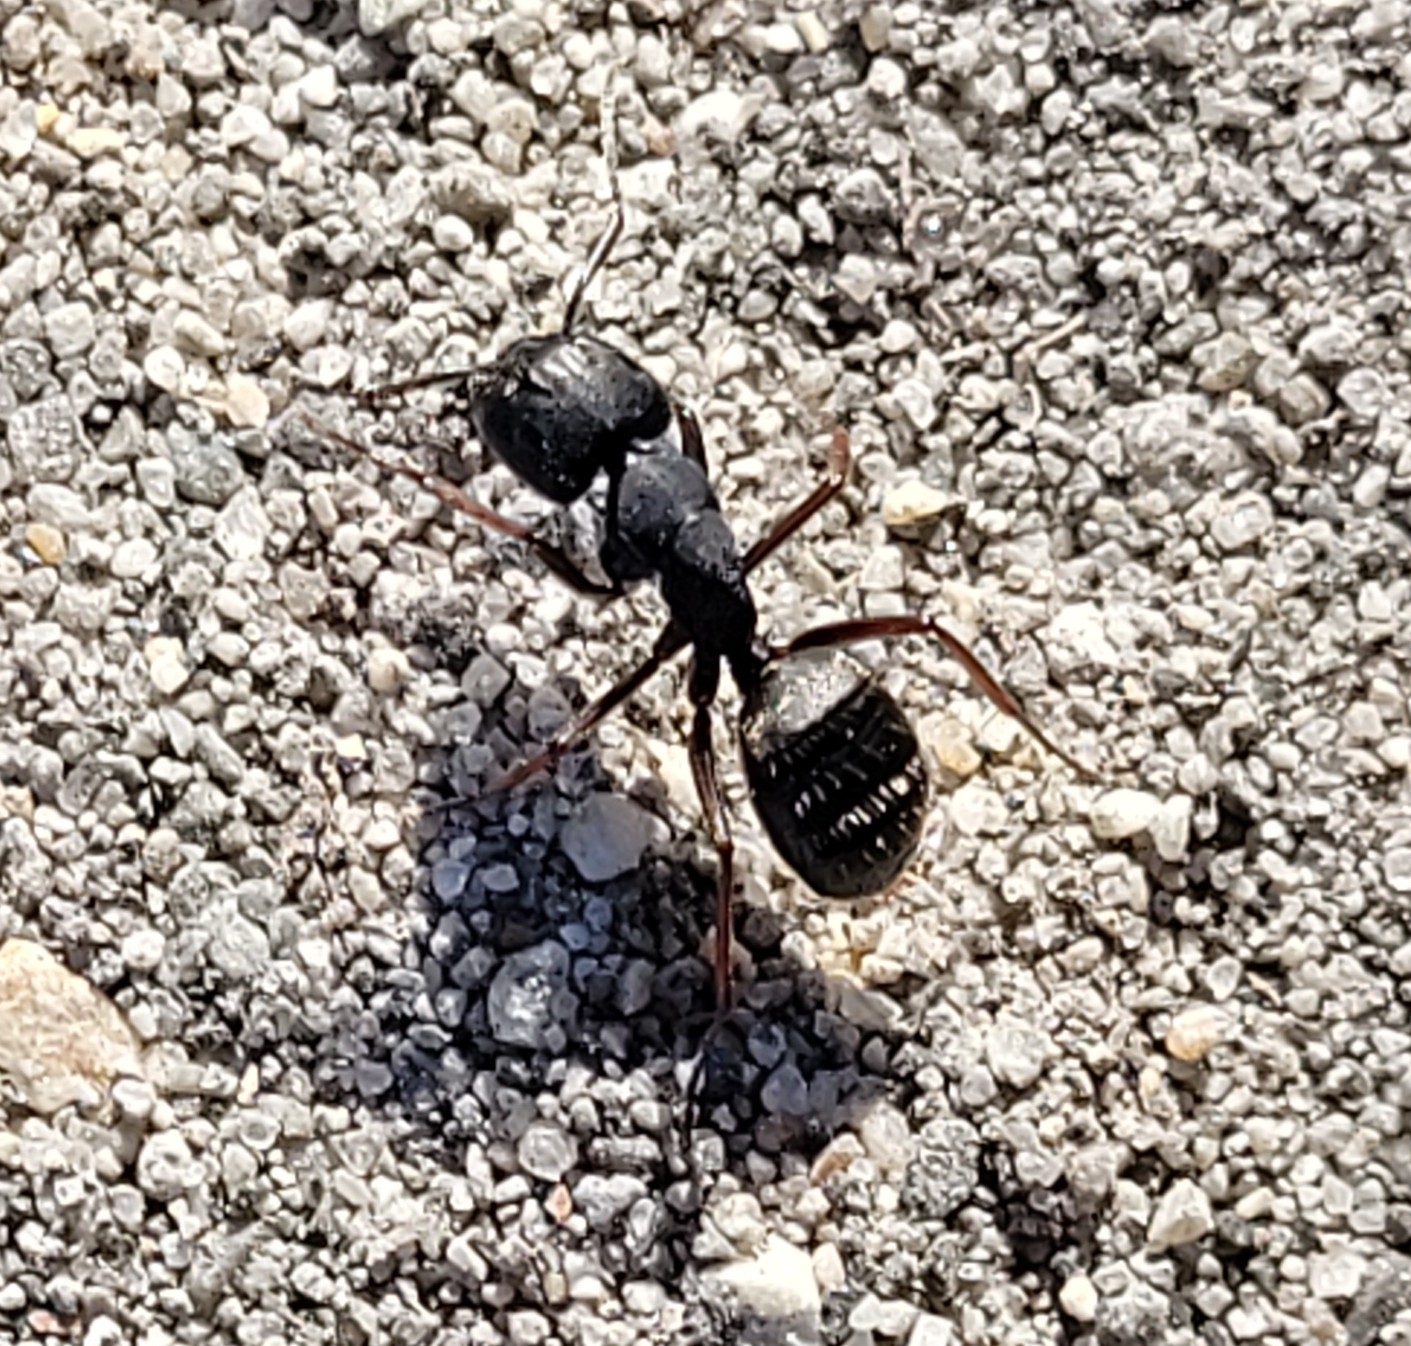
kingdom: Animalia
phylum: Arthropoda
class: Insecta
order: Hymenoptera
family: Formicidae
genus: Camponotus
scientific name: Camponotus modoc
